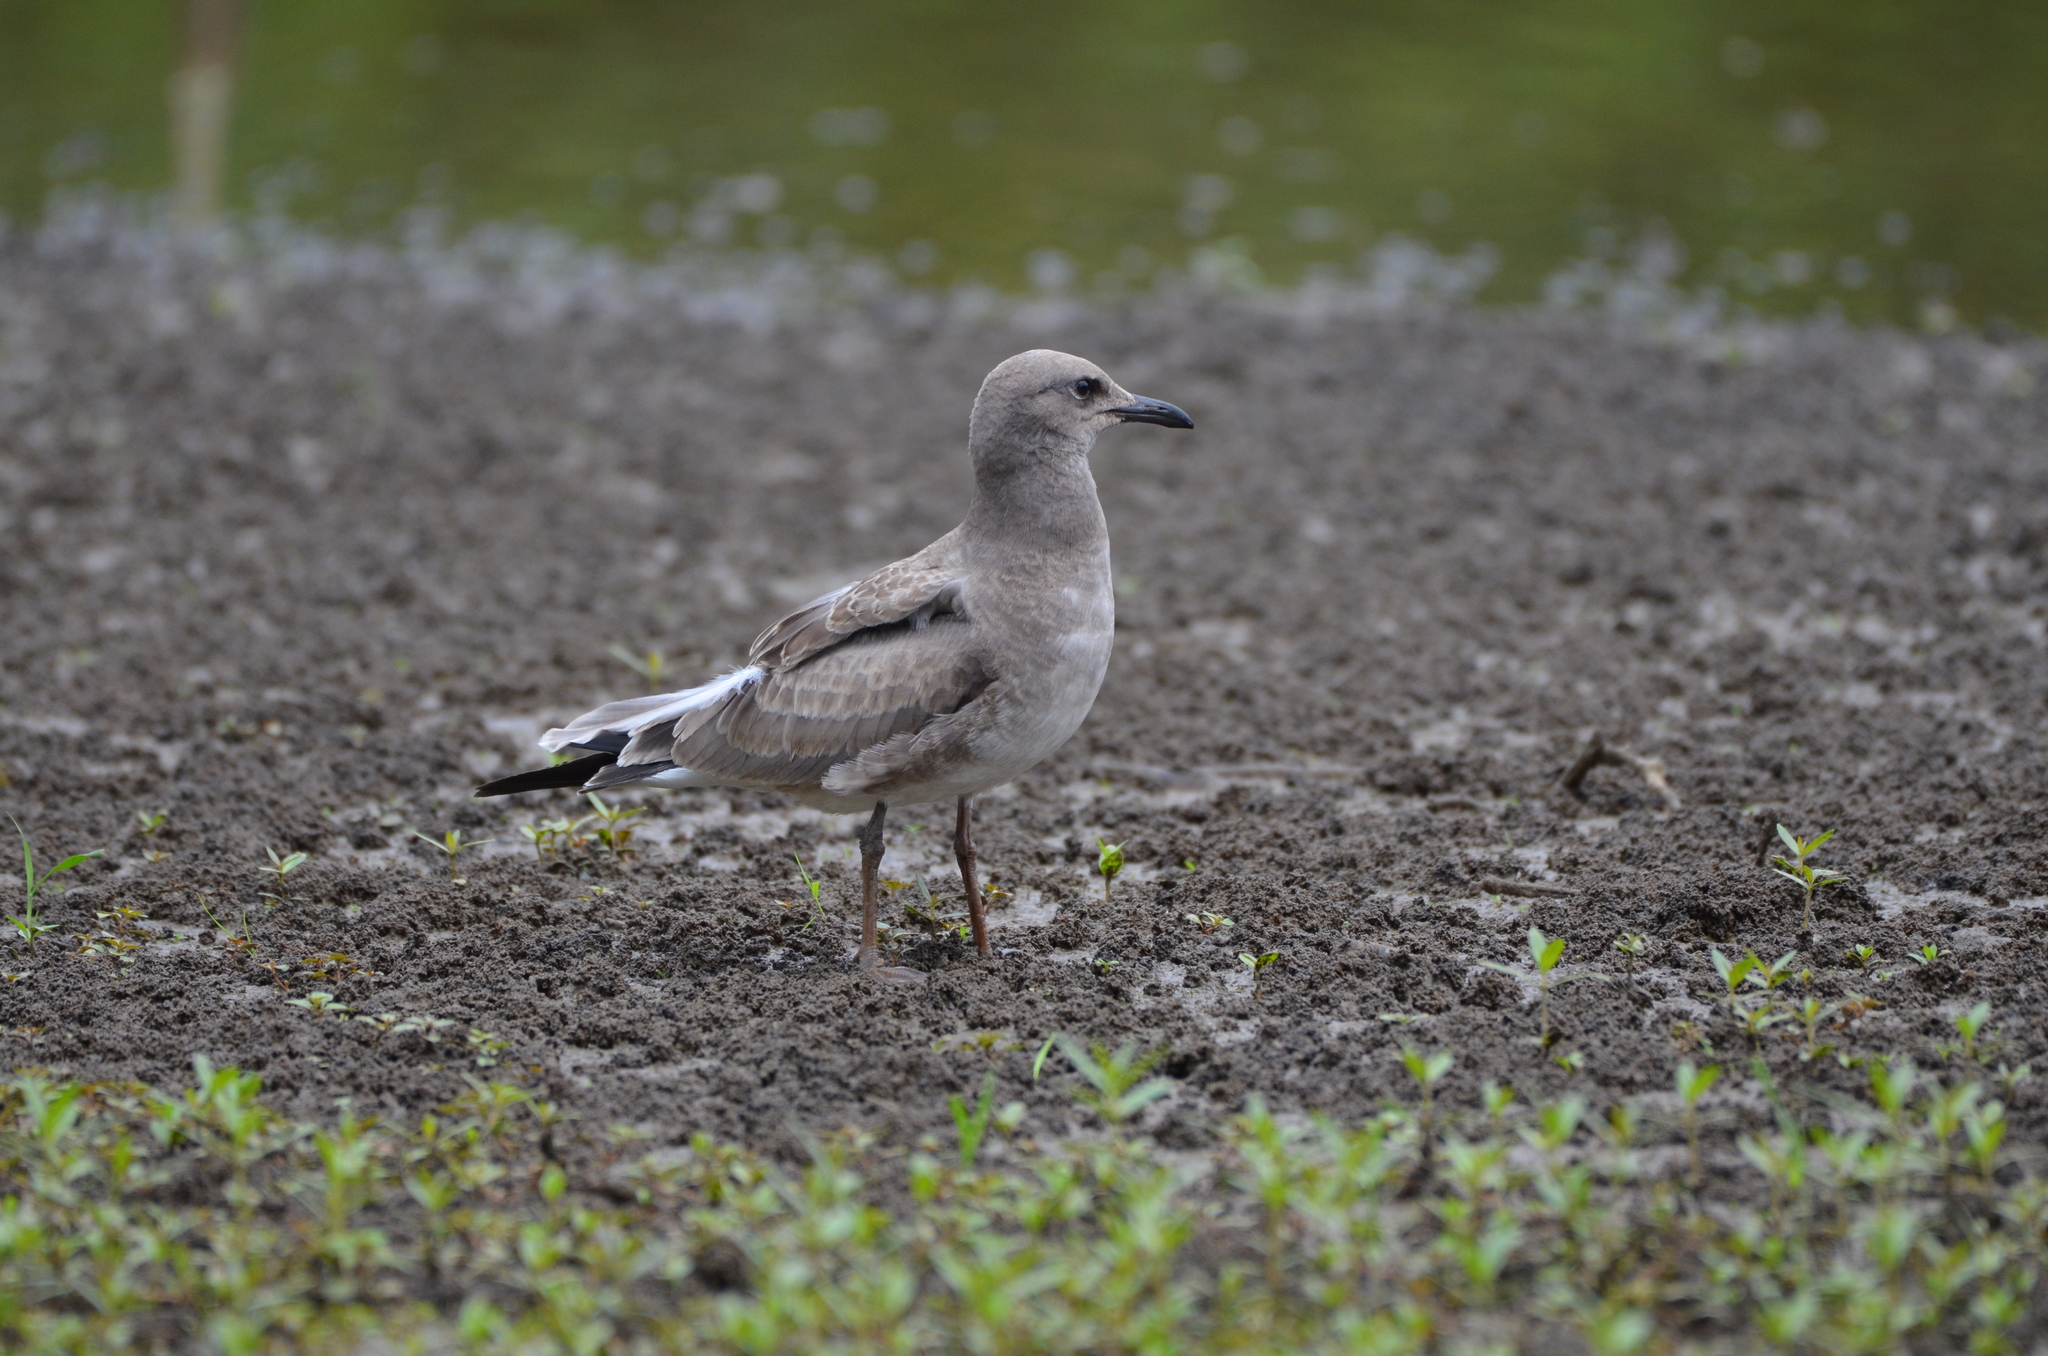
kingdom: Animalia
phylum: Chordata
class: Aves
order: Charadriiformes
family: Laridae
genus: Leucophaeus
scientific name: Leucophaeus atricilla
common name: Laughing gull
